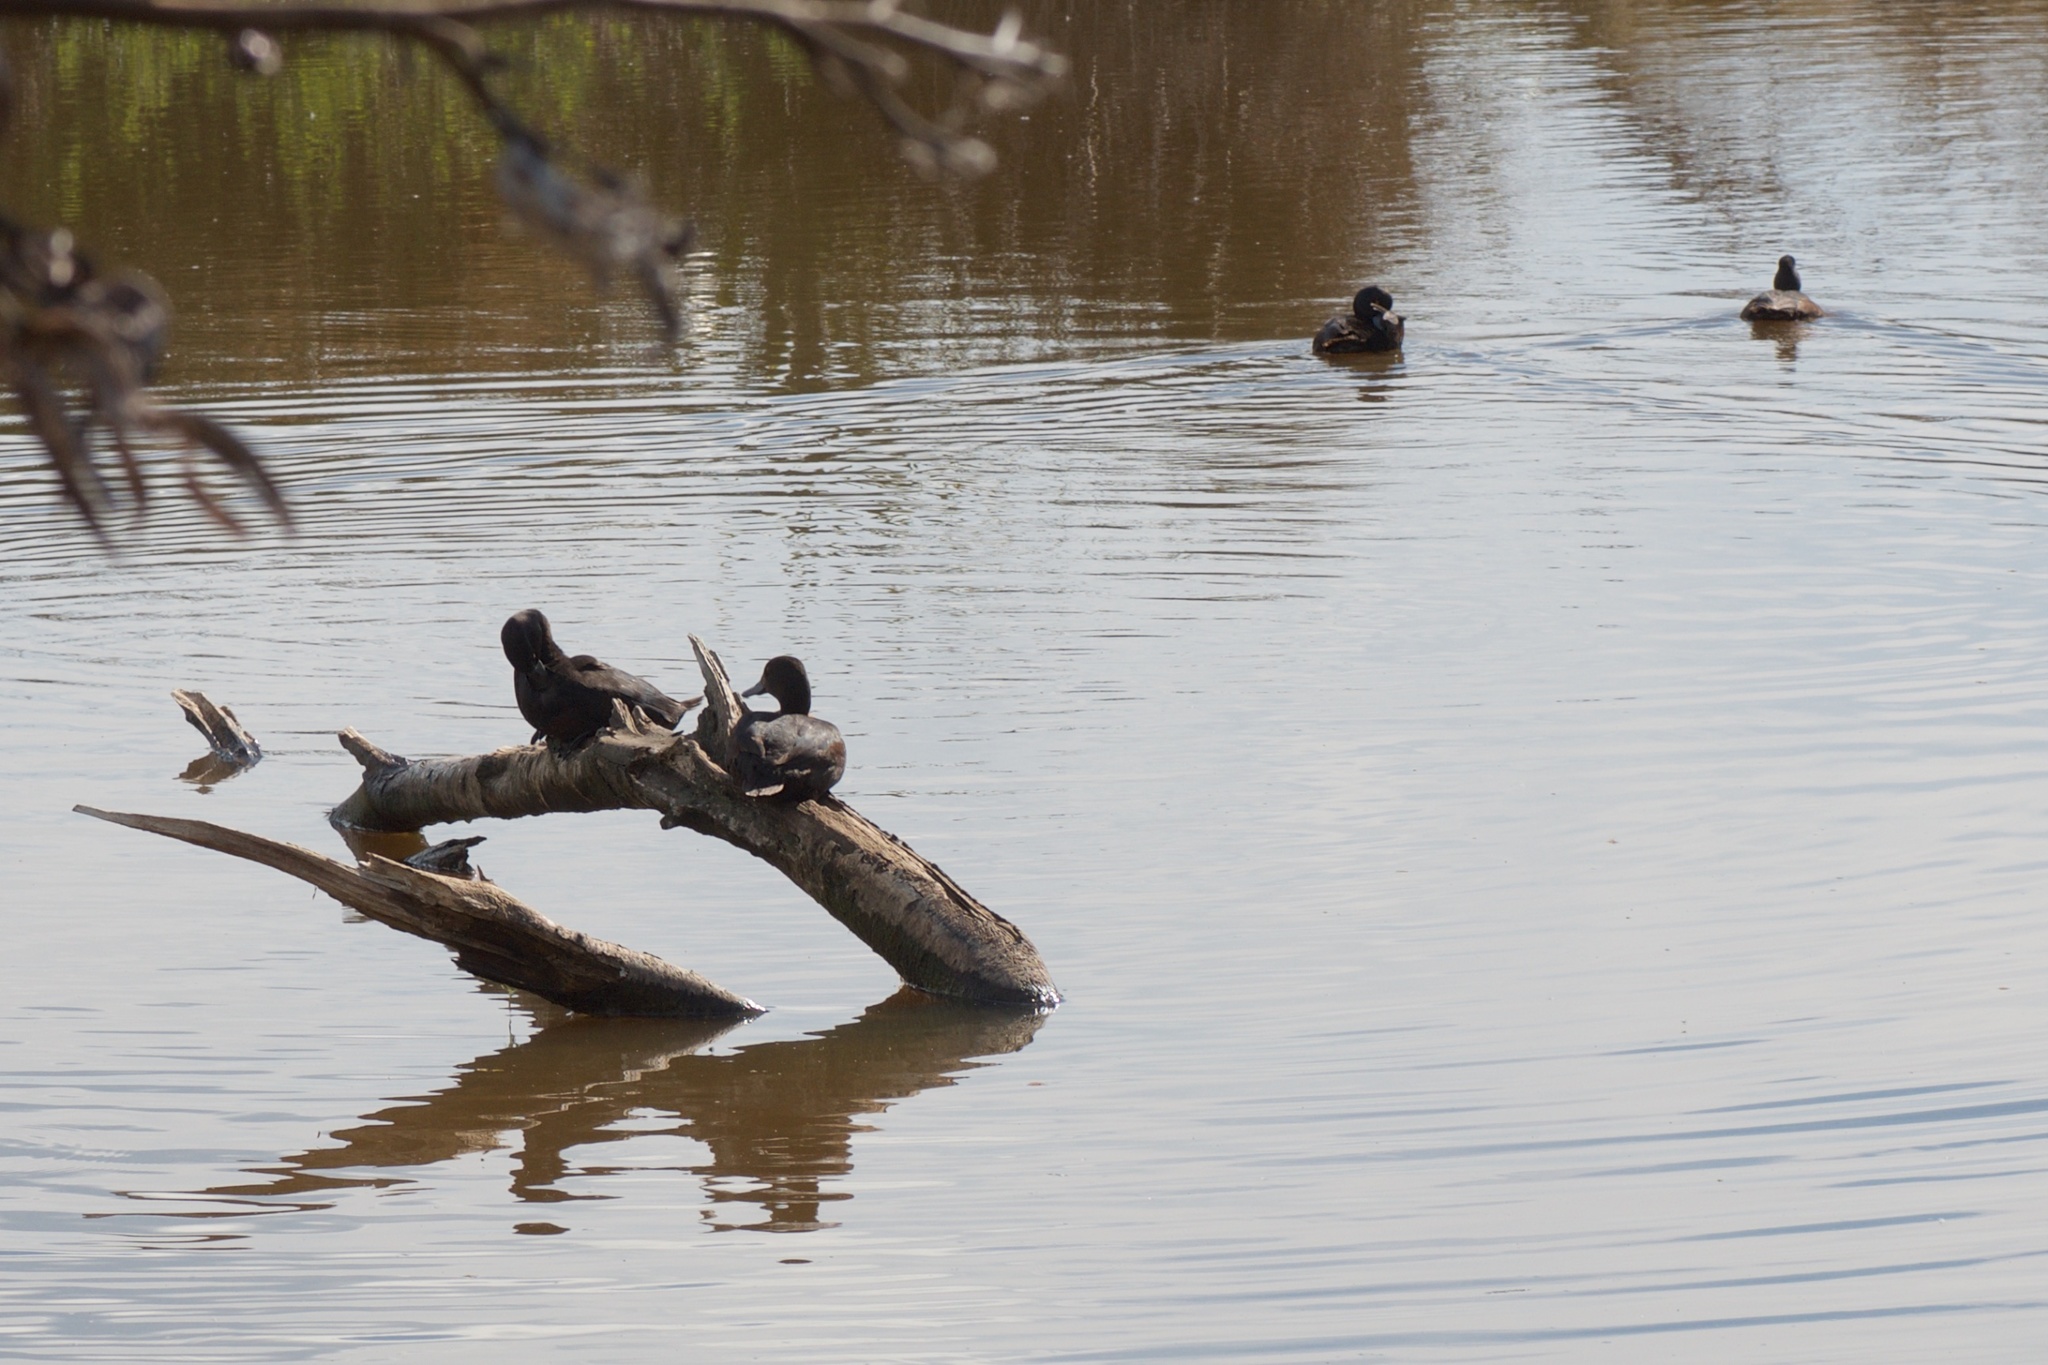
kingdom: Animalia
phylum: Chordata
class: Aves
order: Anseriformes
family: Anatidae
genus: Aythya
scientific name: Aythya novaeseelandiae
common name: New zealand scaup
